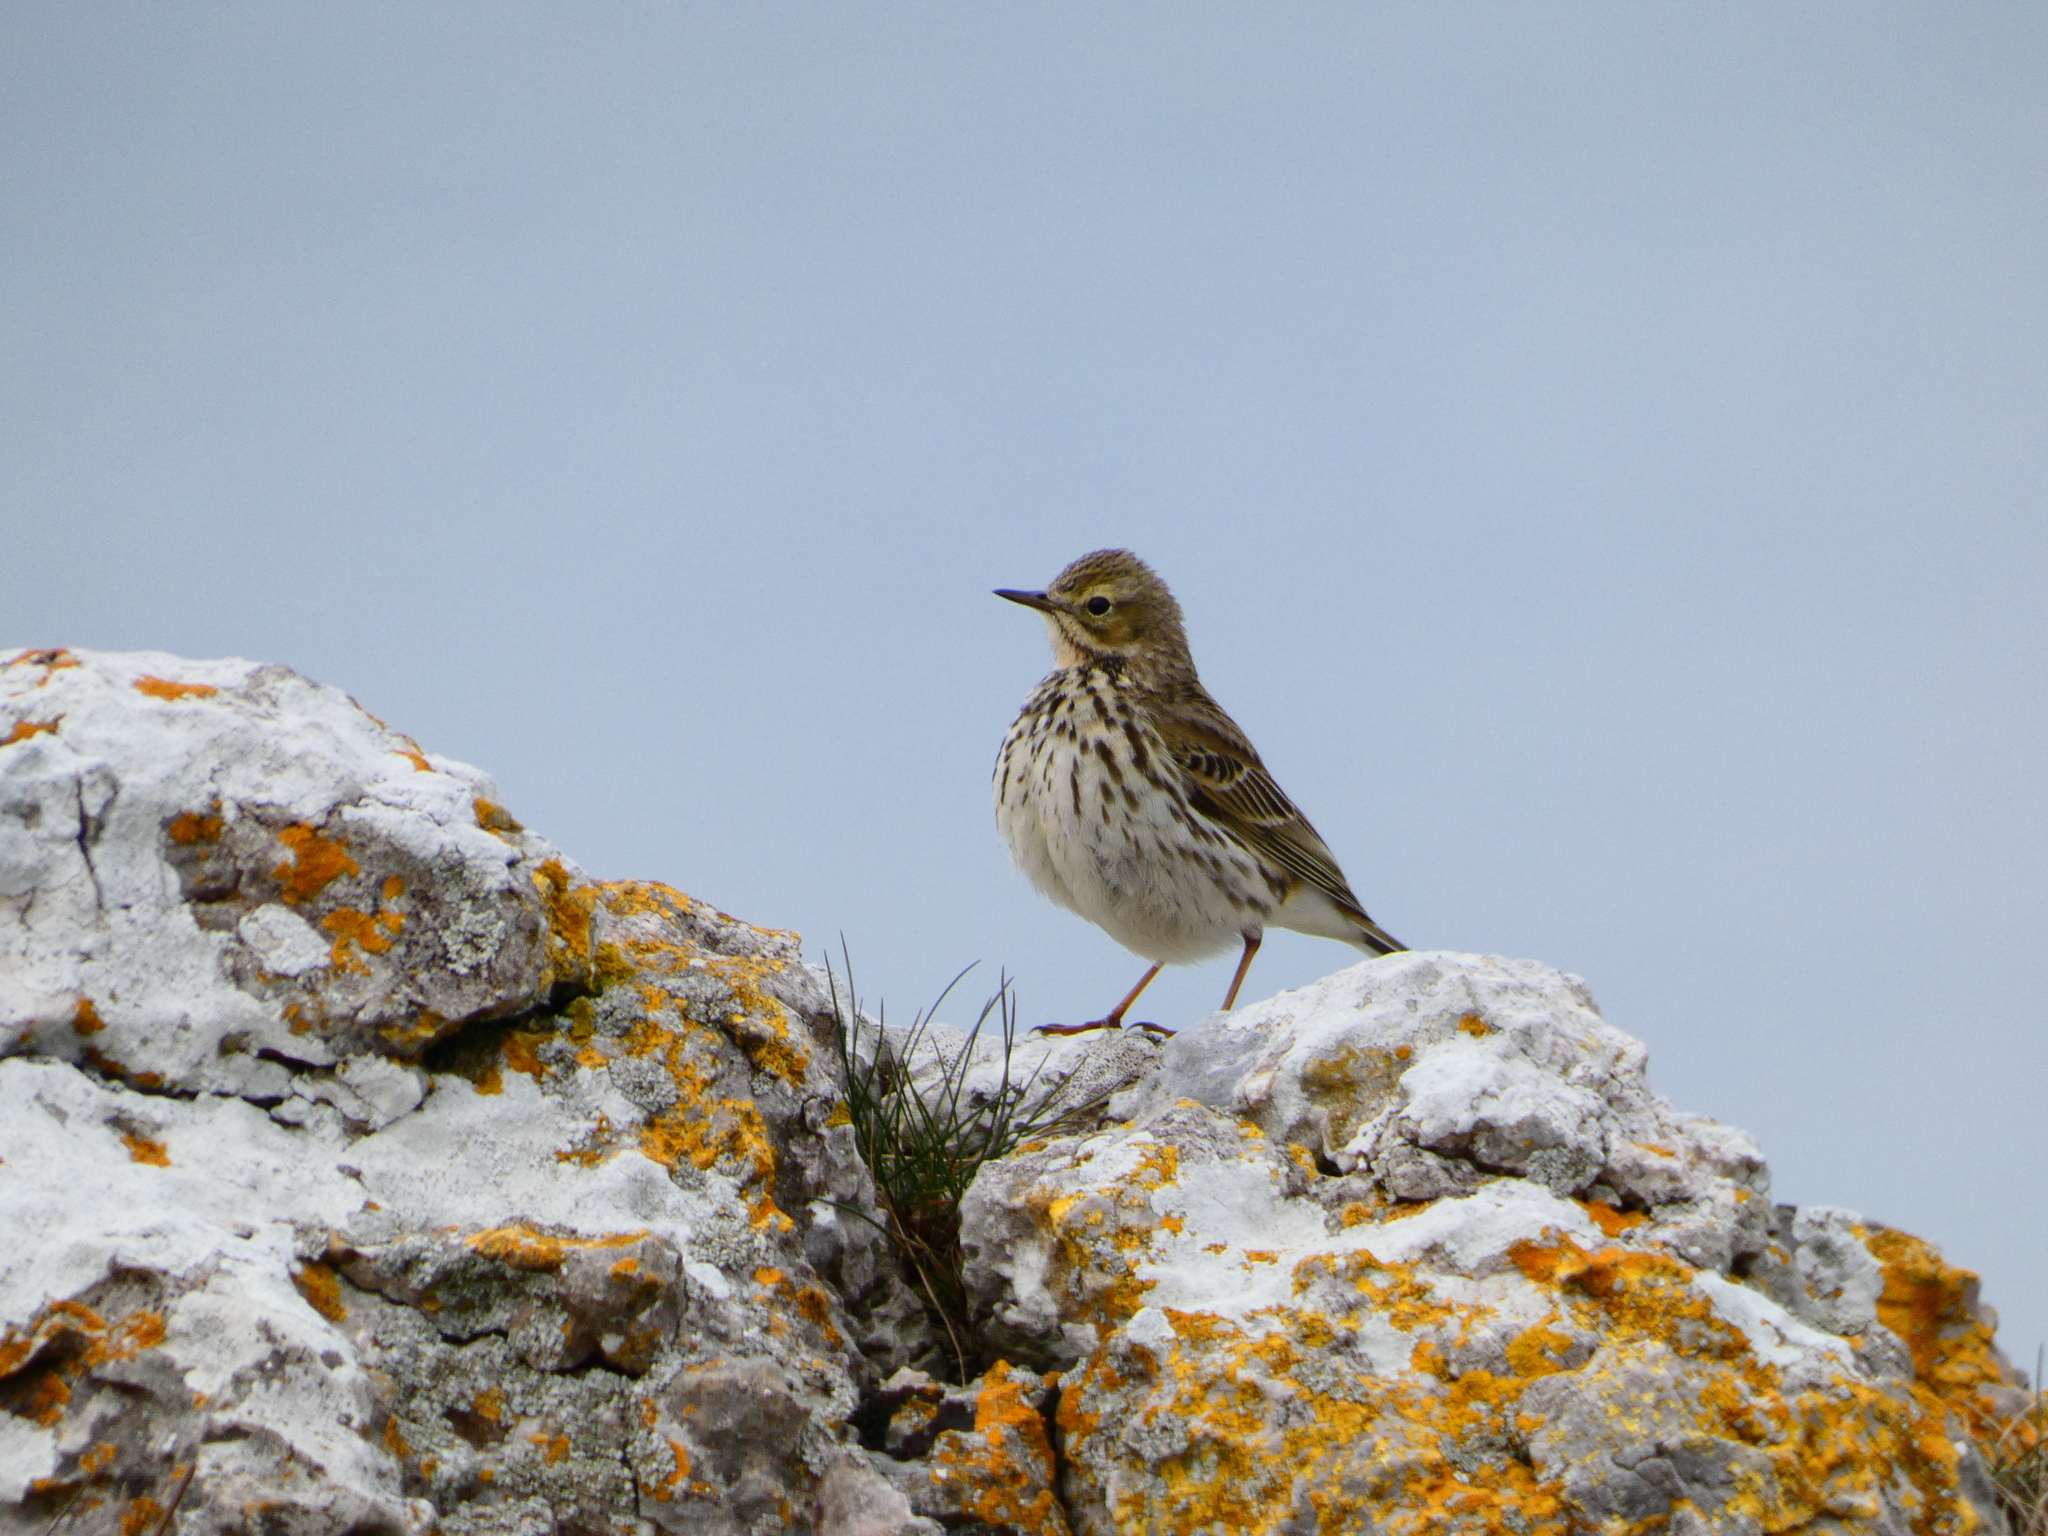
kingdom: Animalia
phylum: Chordata
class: Aves
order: Passeriformes
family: Motacillidae
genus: Anthus
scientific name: Anthus pratensis
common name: Meadow pipit
